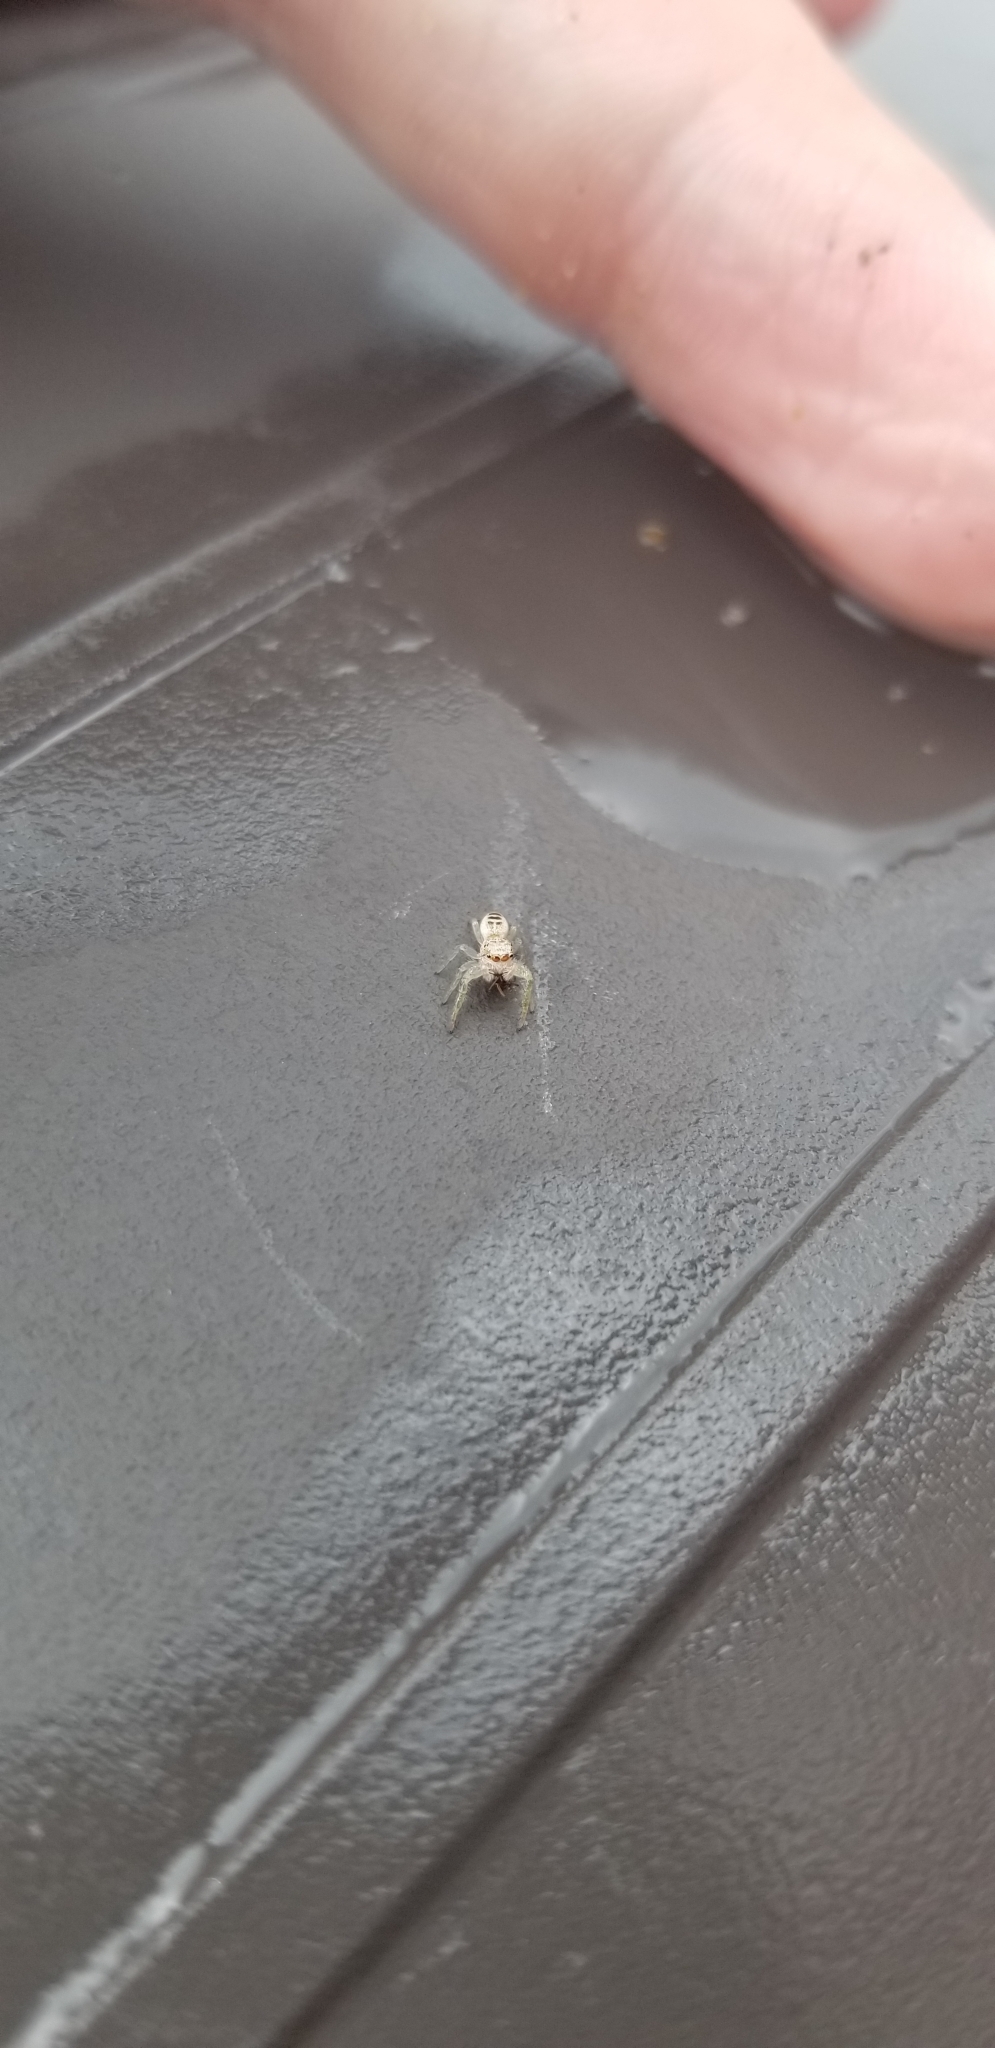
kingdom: Animalia
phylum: Arthropoda
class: Arachnida
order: Araneae
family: Salticidae
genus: Hentzia
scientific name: Hentzia mitrata
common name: White-jawed jumping spider
